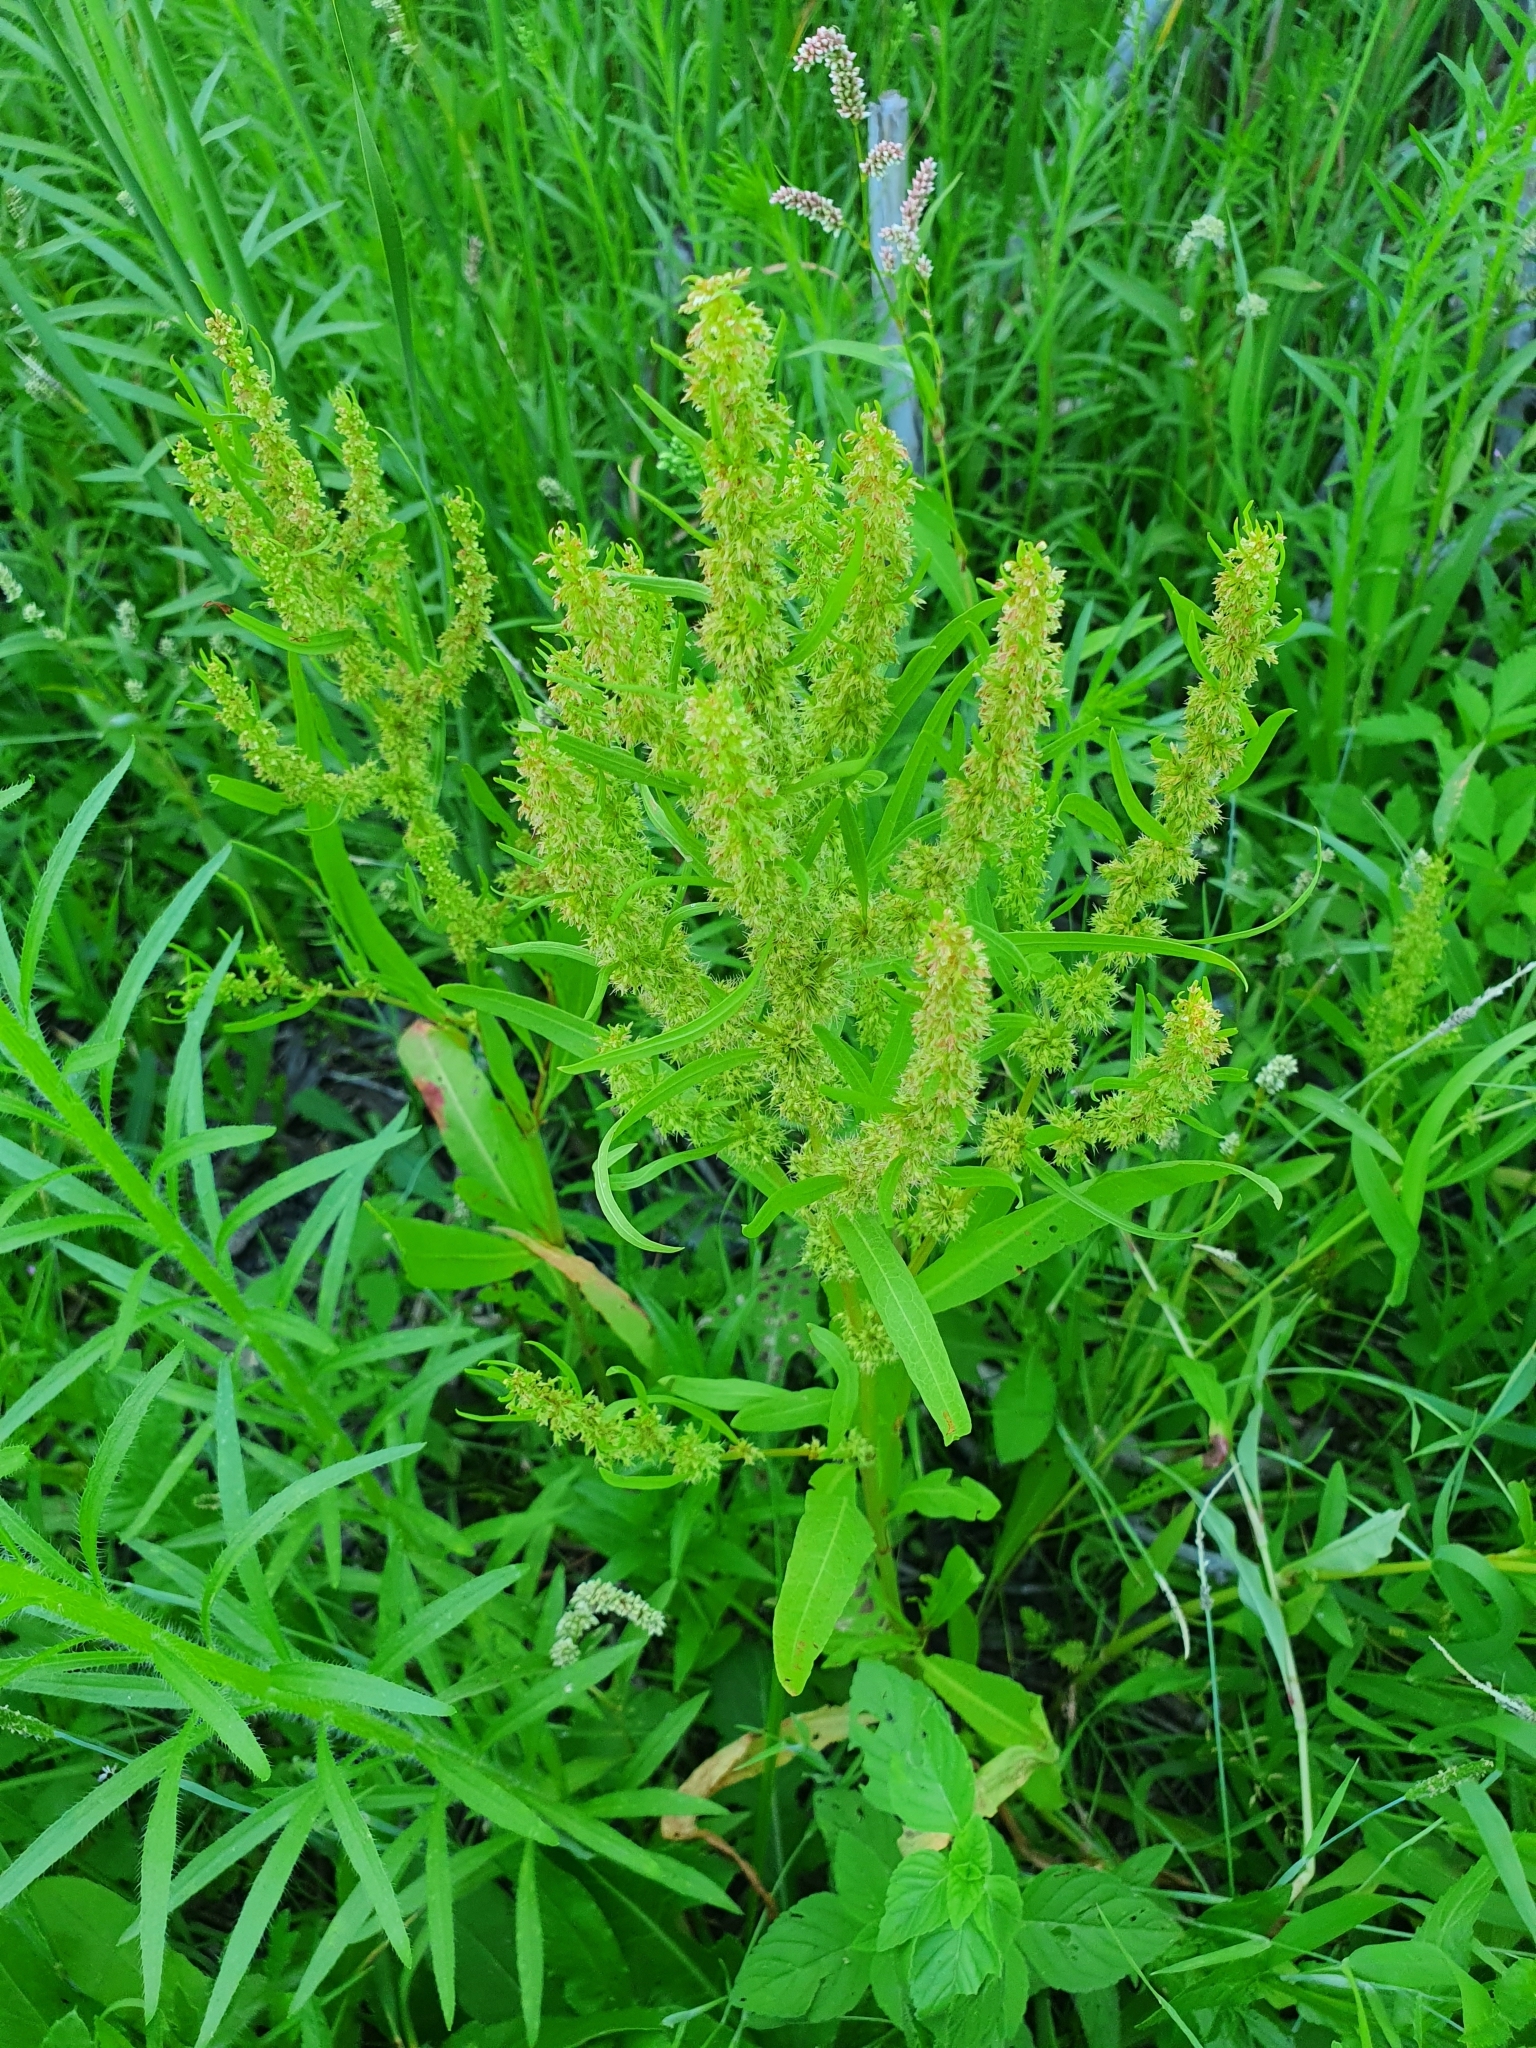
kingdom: Plantae
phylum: Tracheophyta
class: Magnoliopsida
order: Caryophyllales
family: Polygonaceae
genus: Rumex
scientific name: Rumex maritimus
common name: Golden dock
